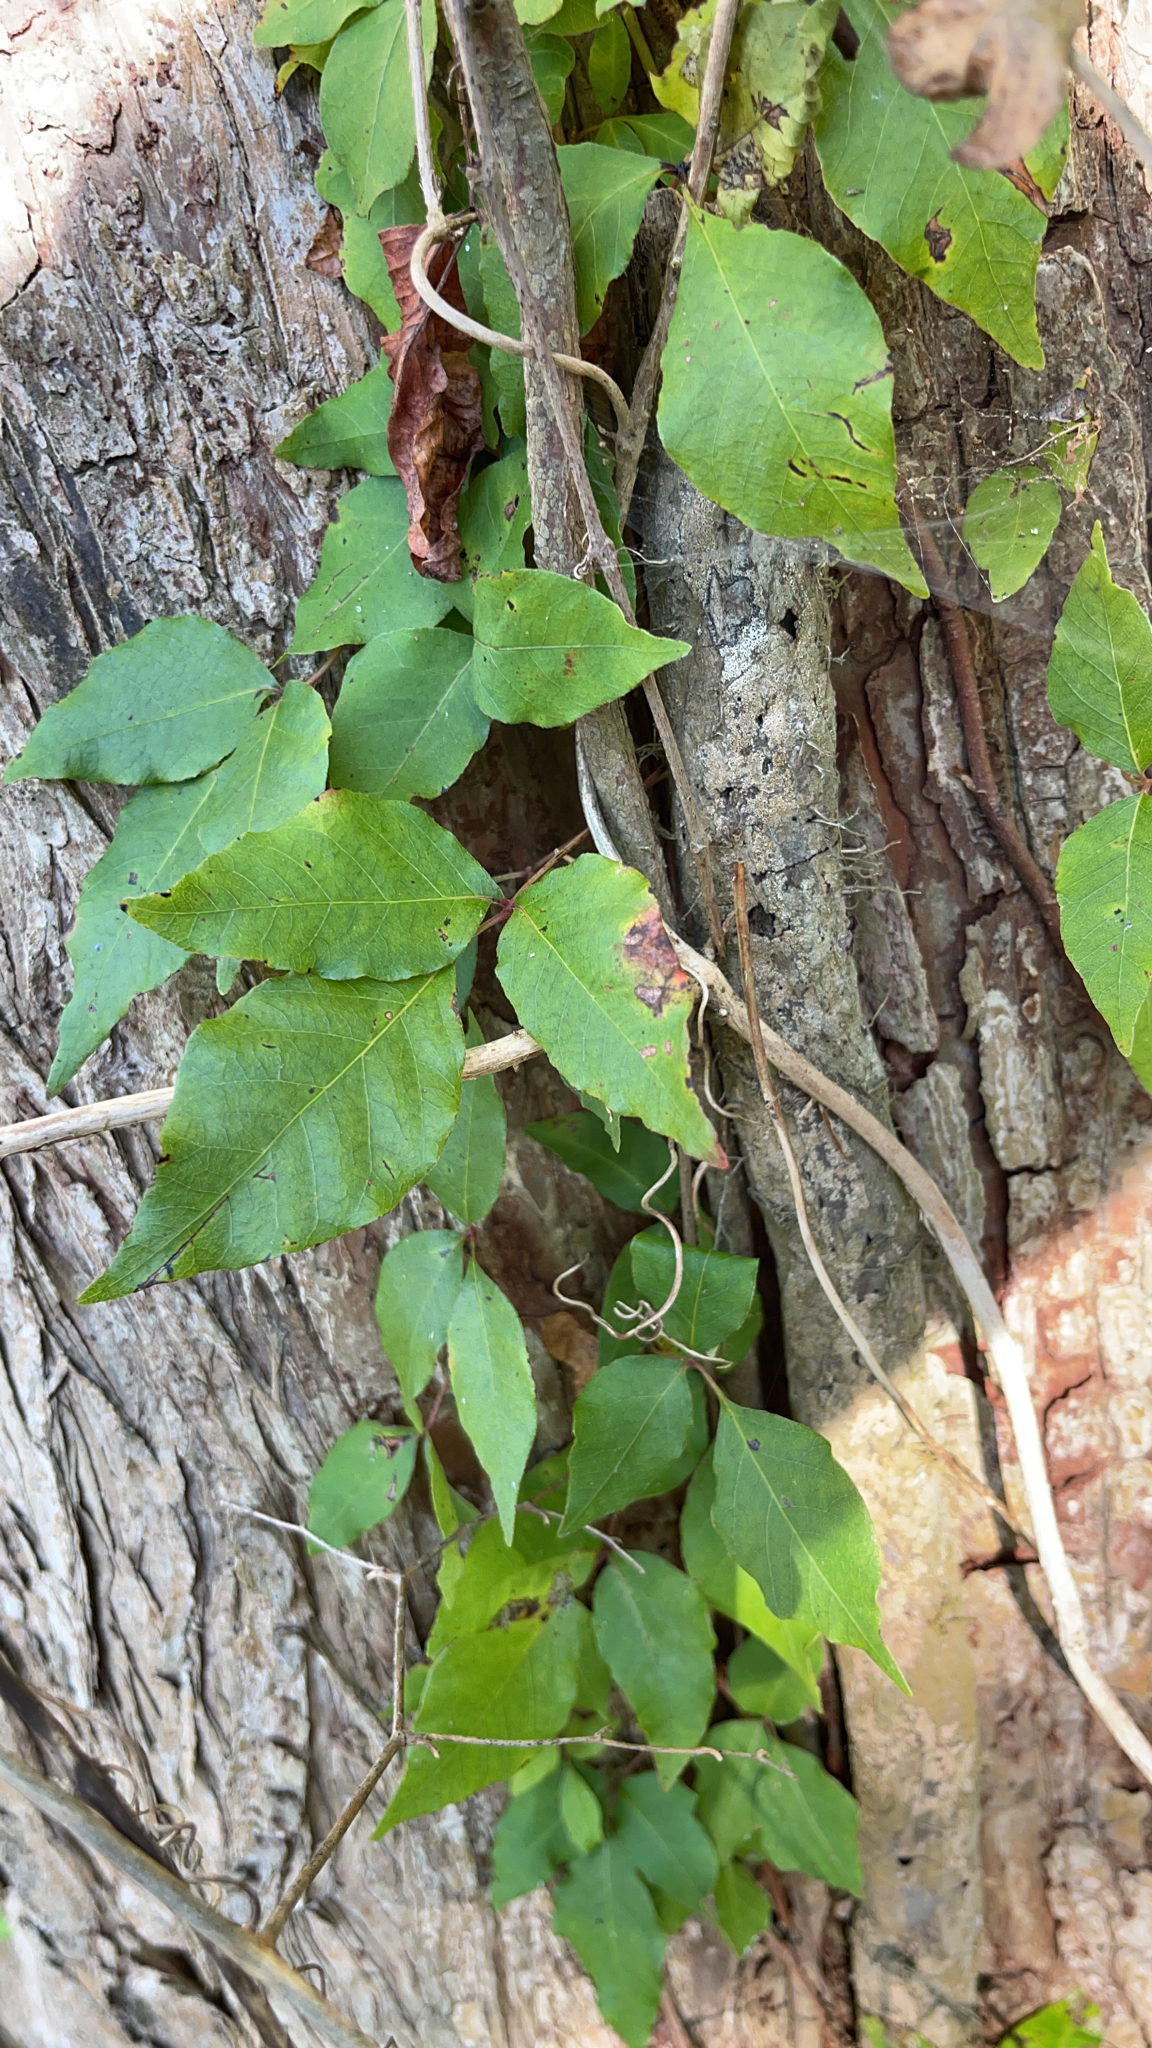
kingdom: Plantae
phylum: Tracheophyta
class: Magnoliopsida
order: Sapindales
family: Anacardiaceae
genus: Toxicodendron
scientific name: Toxicodendron radicans
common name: Poison ivy
